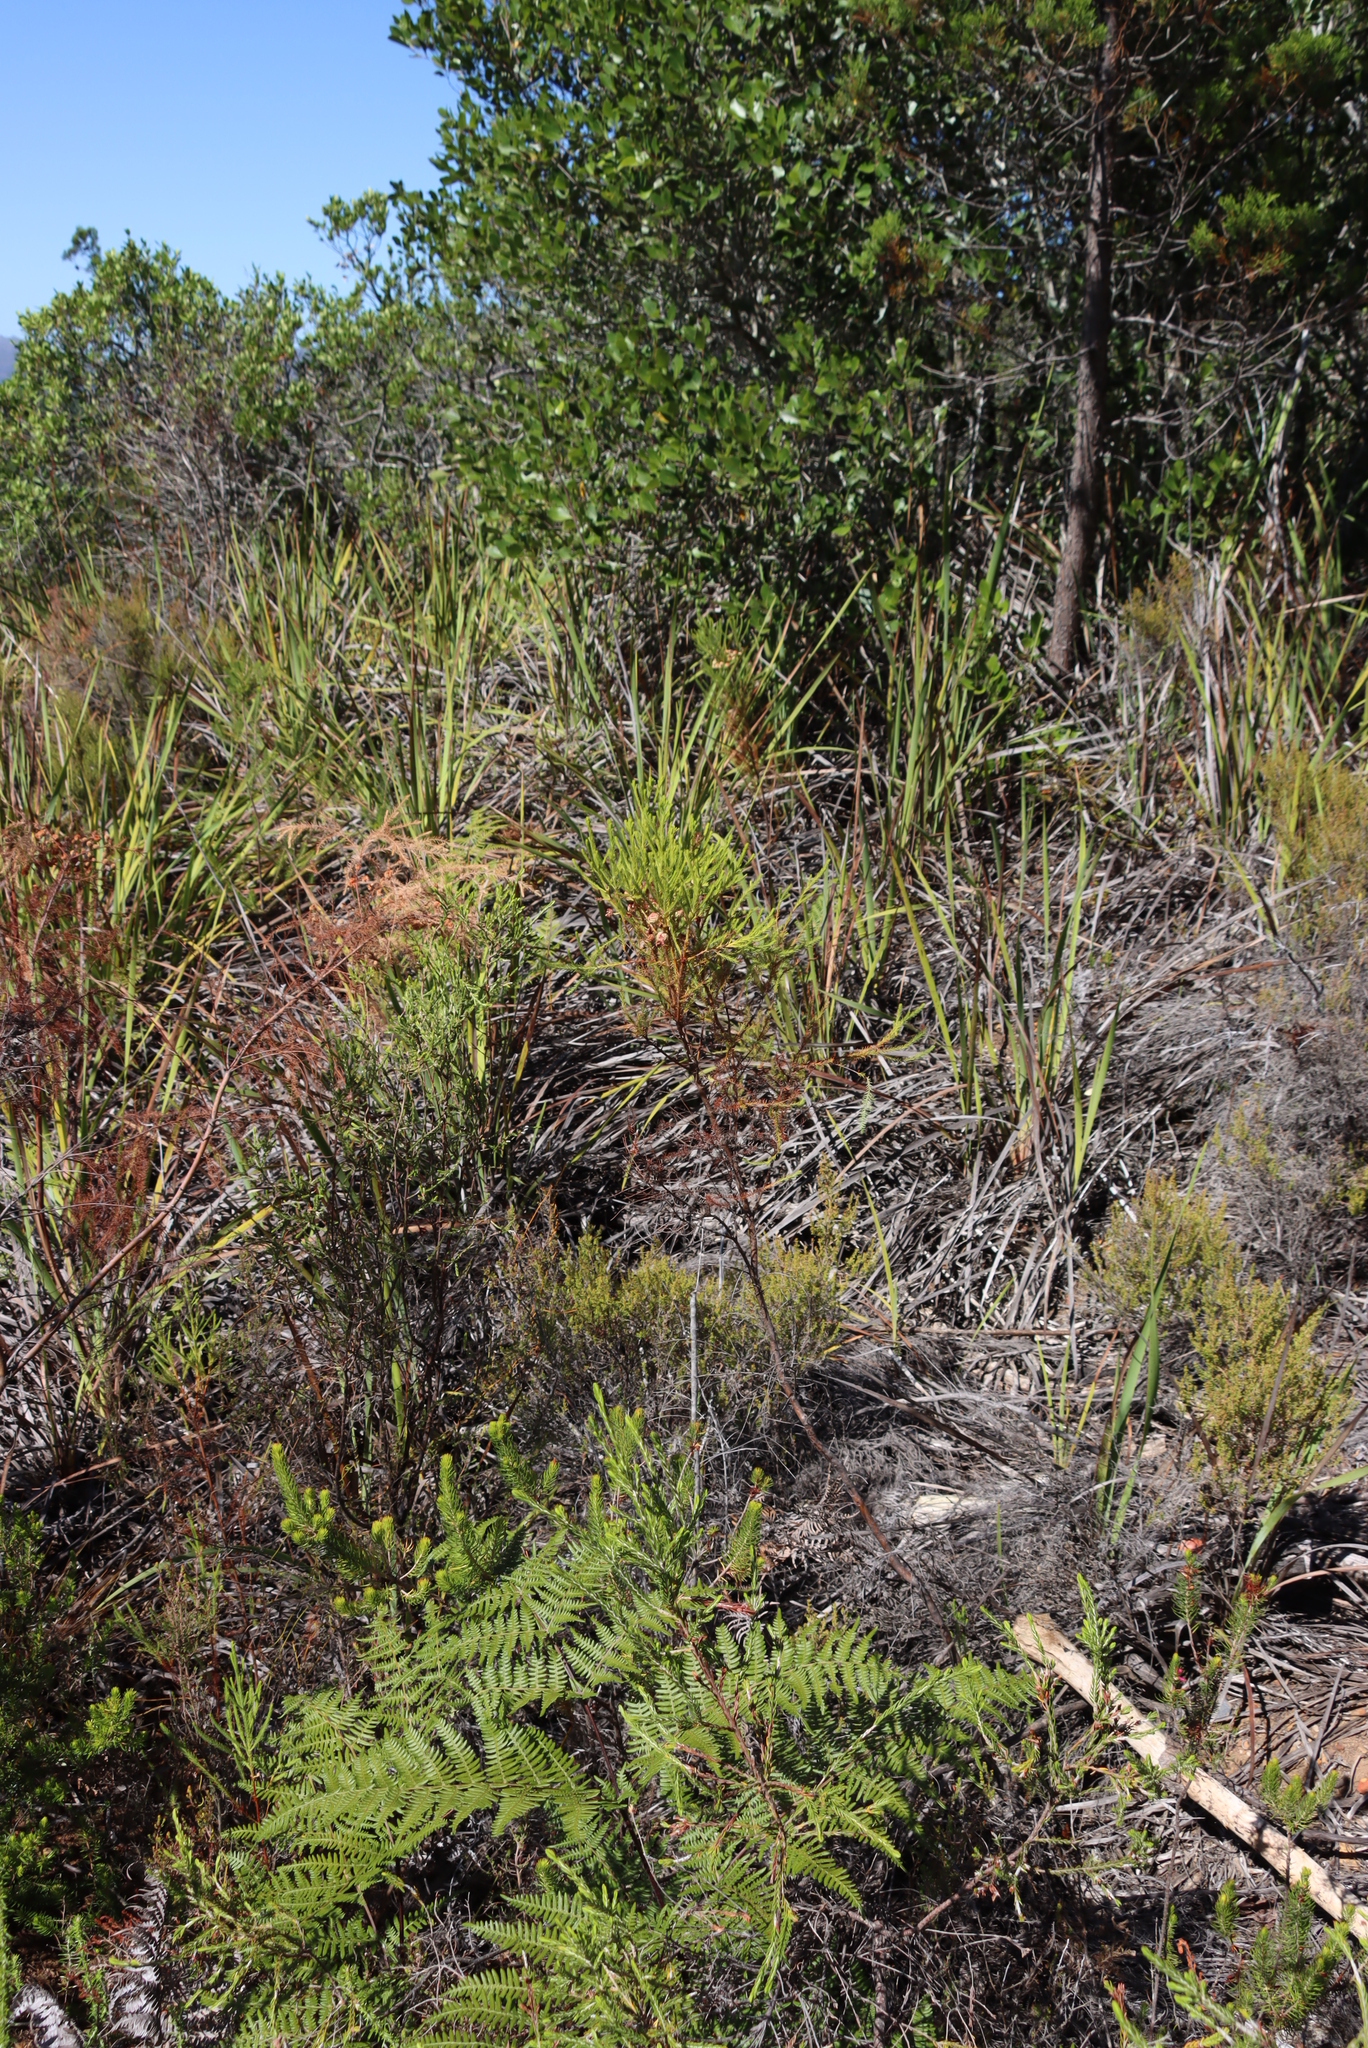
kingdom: Plantae
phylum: Tracheophyta
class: Magnoliopsida
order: Bruniales
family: Bruniaceae
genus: Berzelia
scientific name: Berzelia lanuginosa
